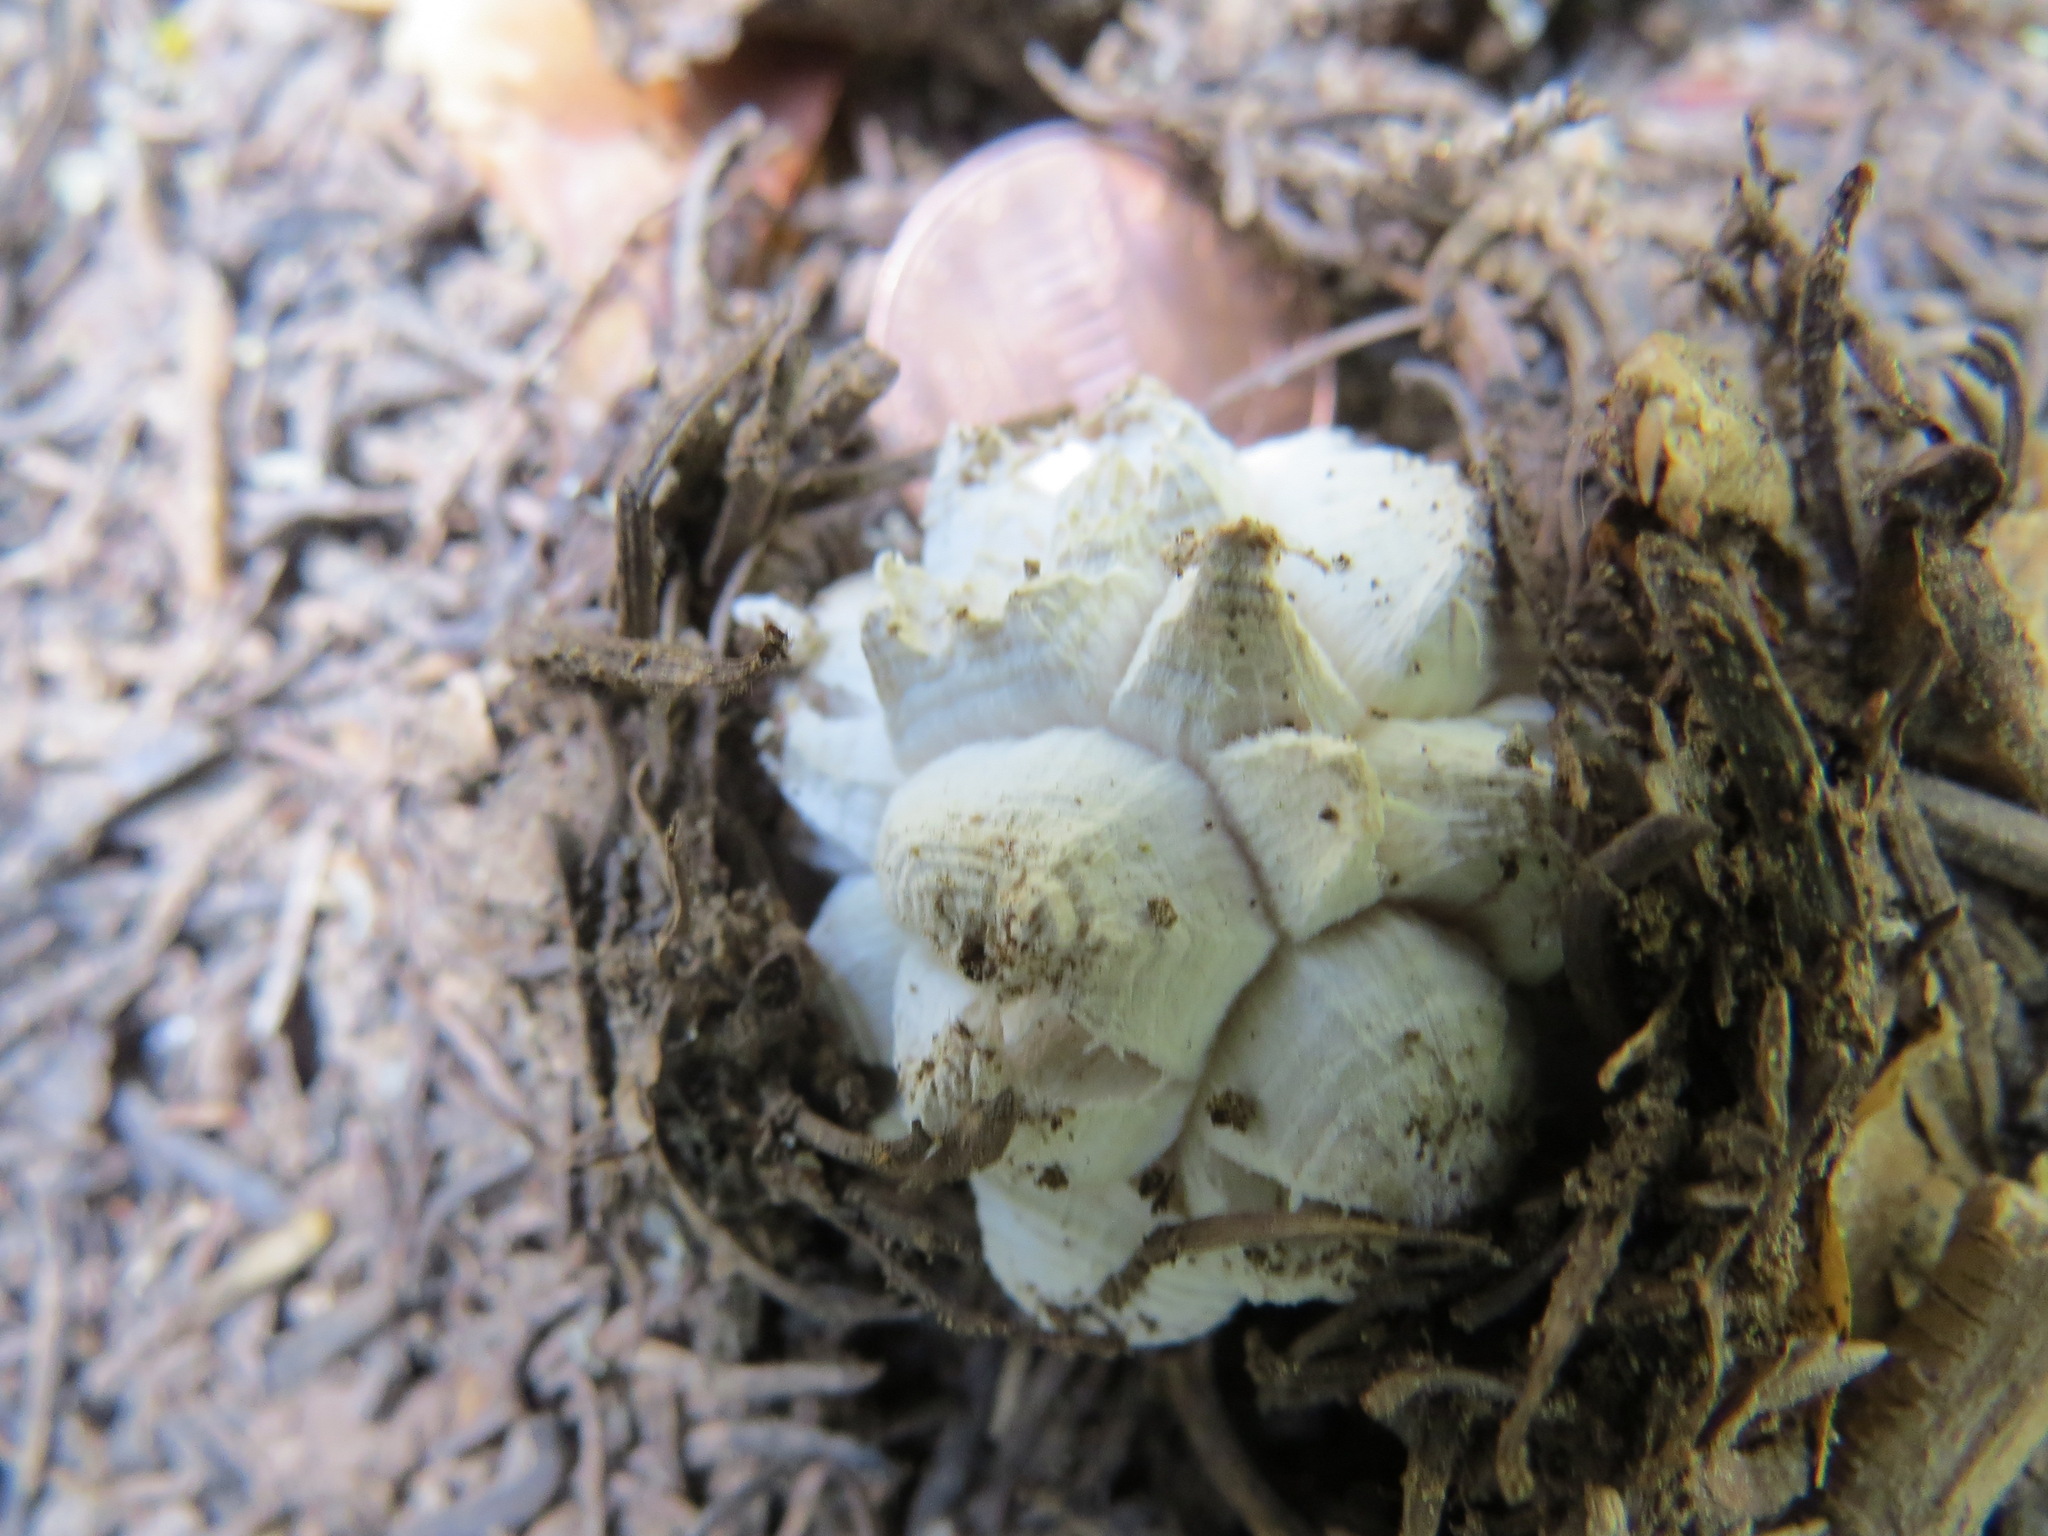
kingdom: Fungi
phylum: Basidiomycota
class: Agaricomycetes
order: Agaricales
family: Lycoperdaceae
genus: Calvatia
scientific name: Calvatia sculpta
